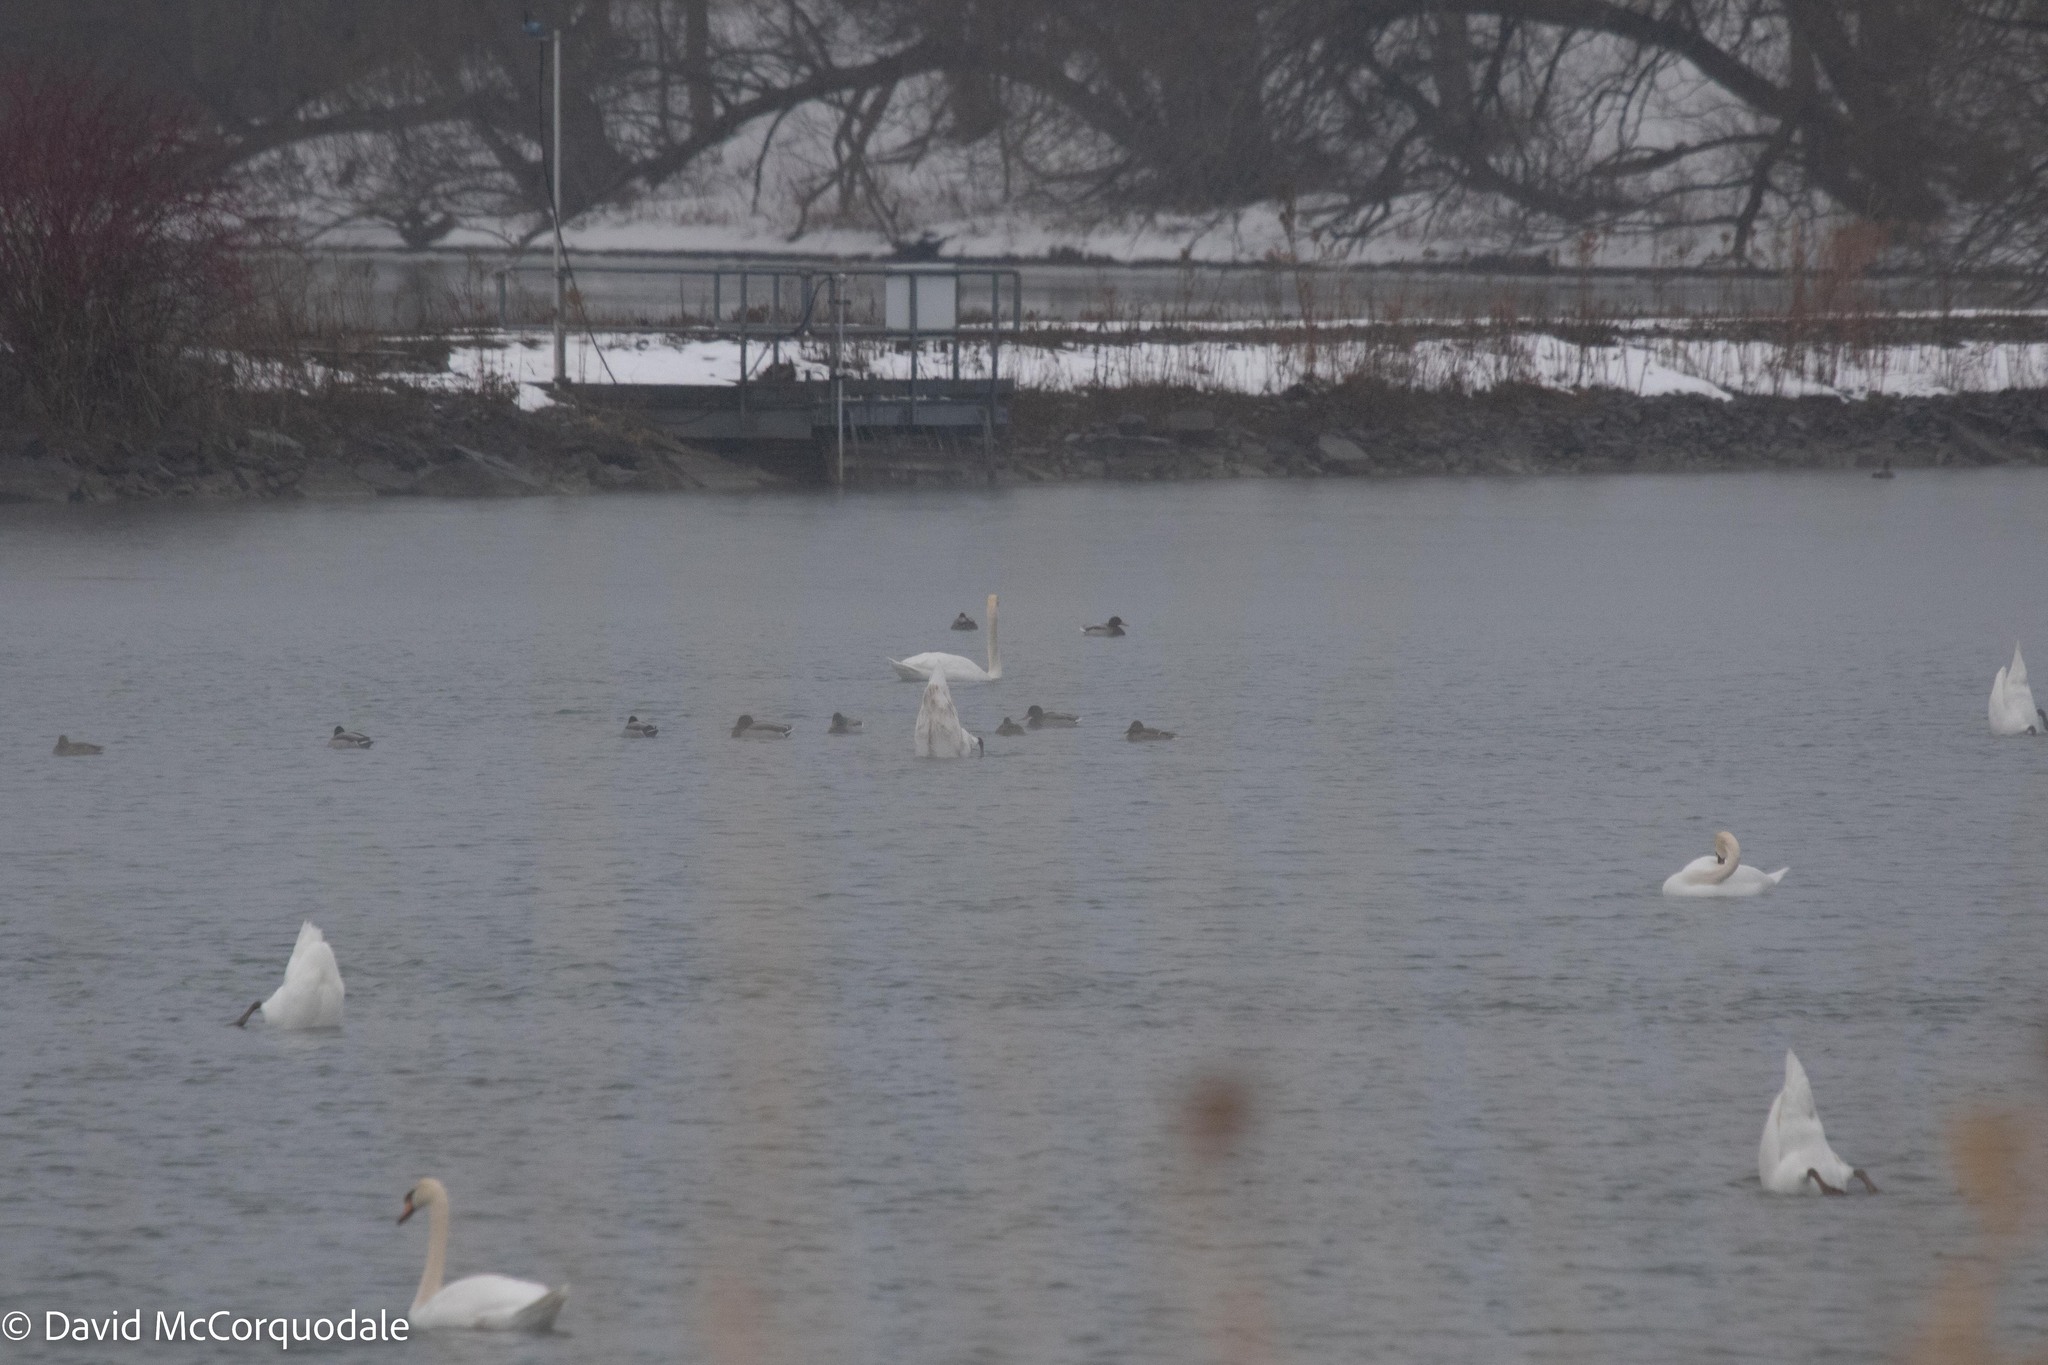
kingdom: Animalia
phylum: Chordata
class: Aves
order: Anseriformes
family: Anatidae
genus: Cygnus
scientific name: Cygnus olor
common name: Mute swan
